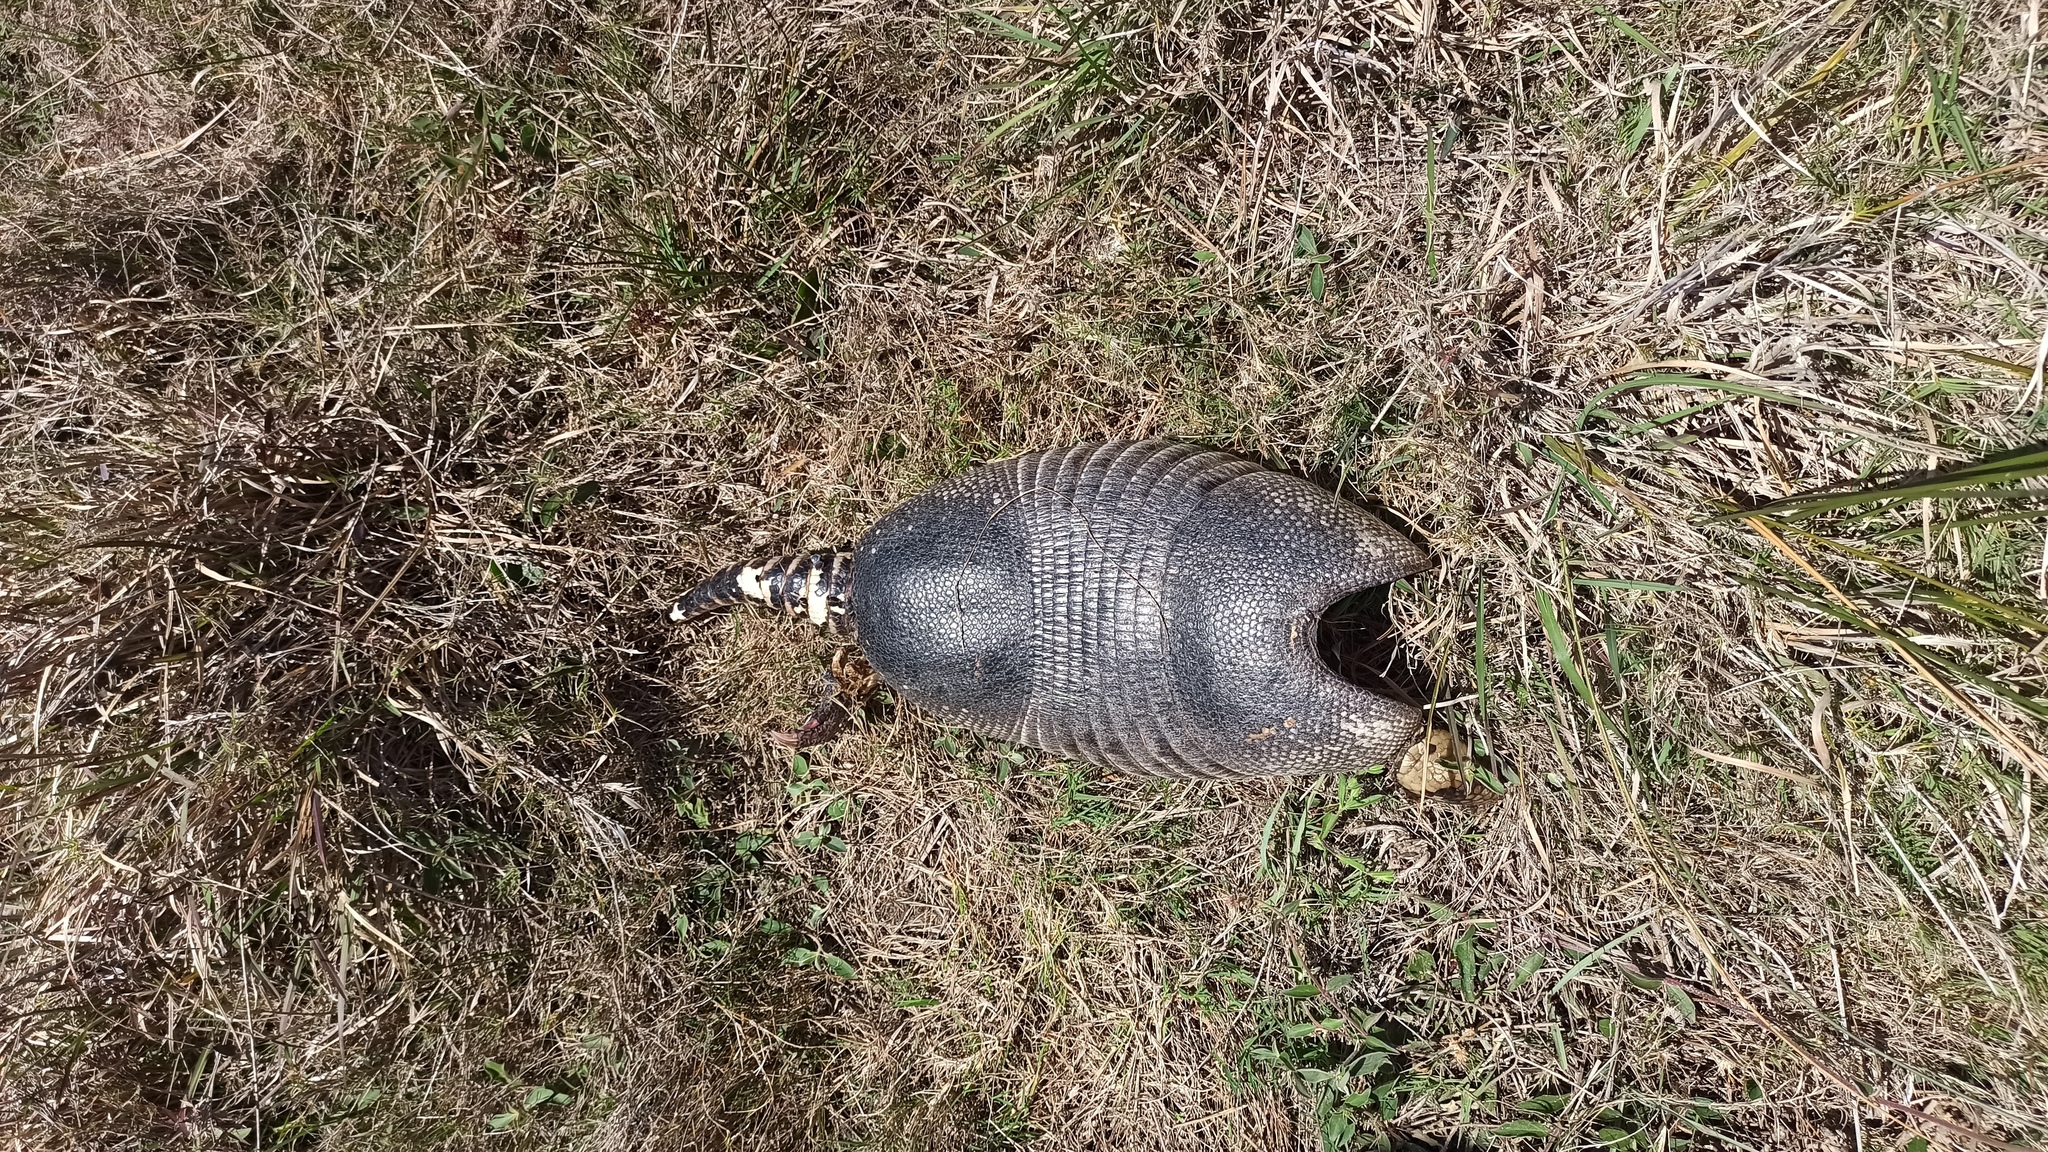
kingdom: Animalia
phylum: Chordata
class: Mammalia
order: Cingulata
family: Dasypodidae
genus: Dasypus
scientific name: Dasypus novemcinctus
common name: Nine-banded armadillo
